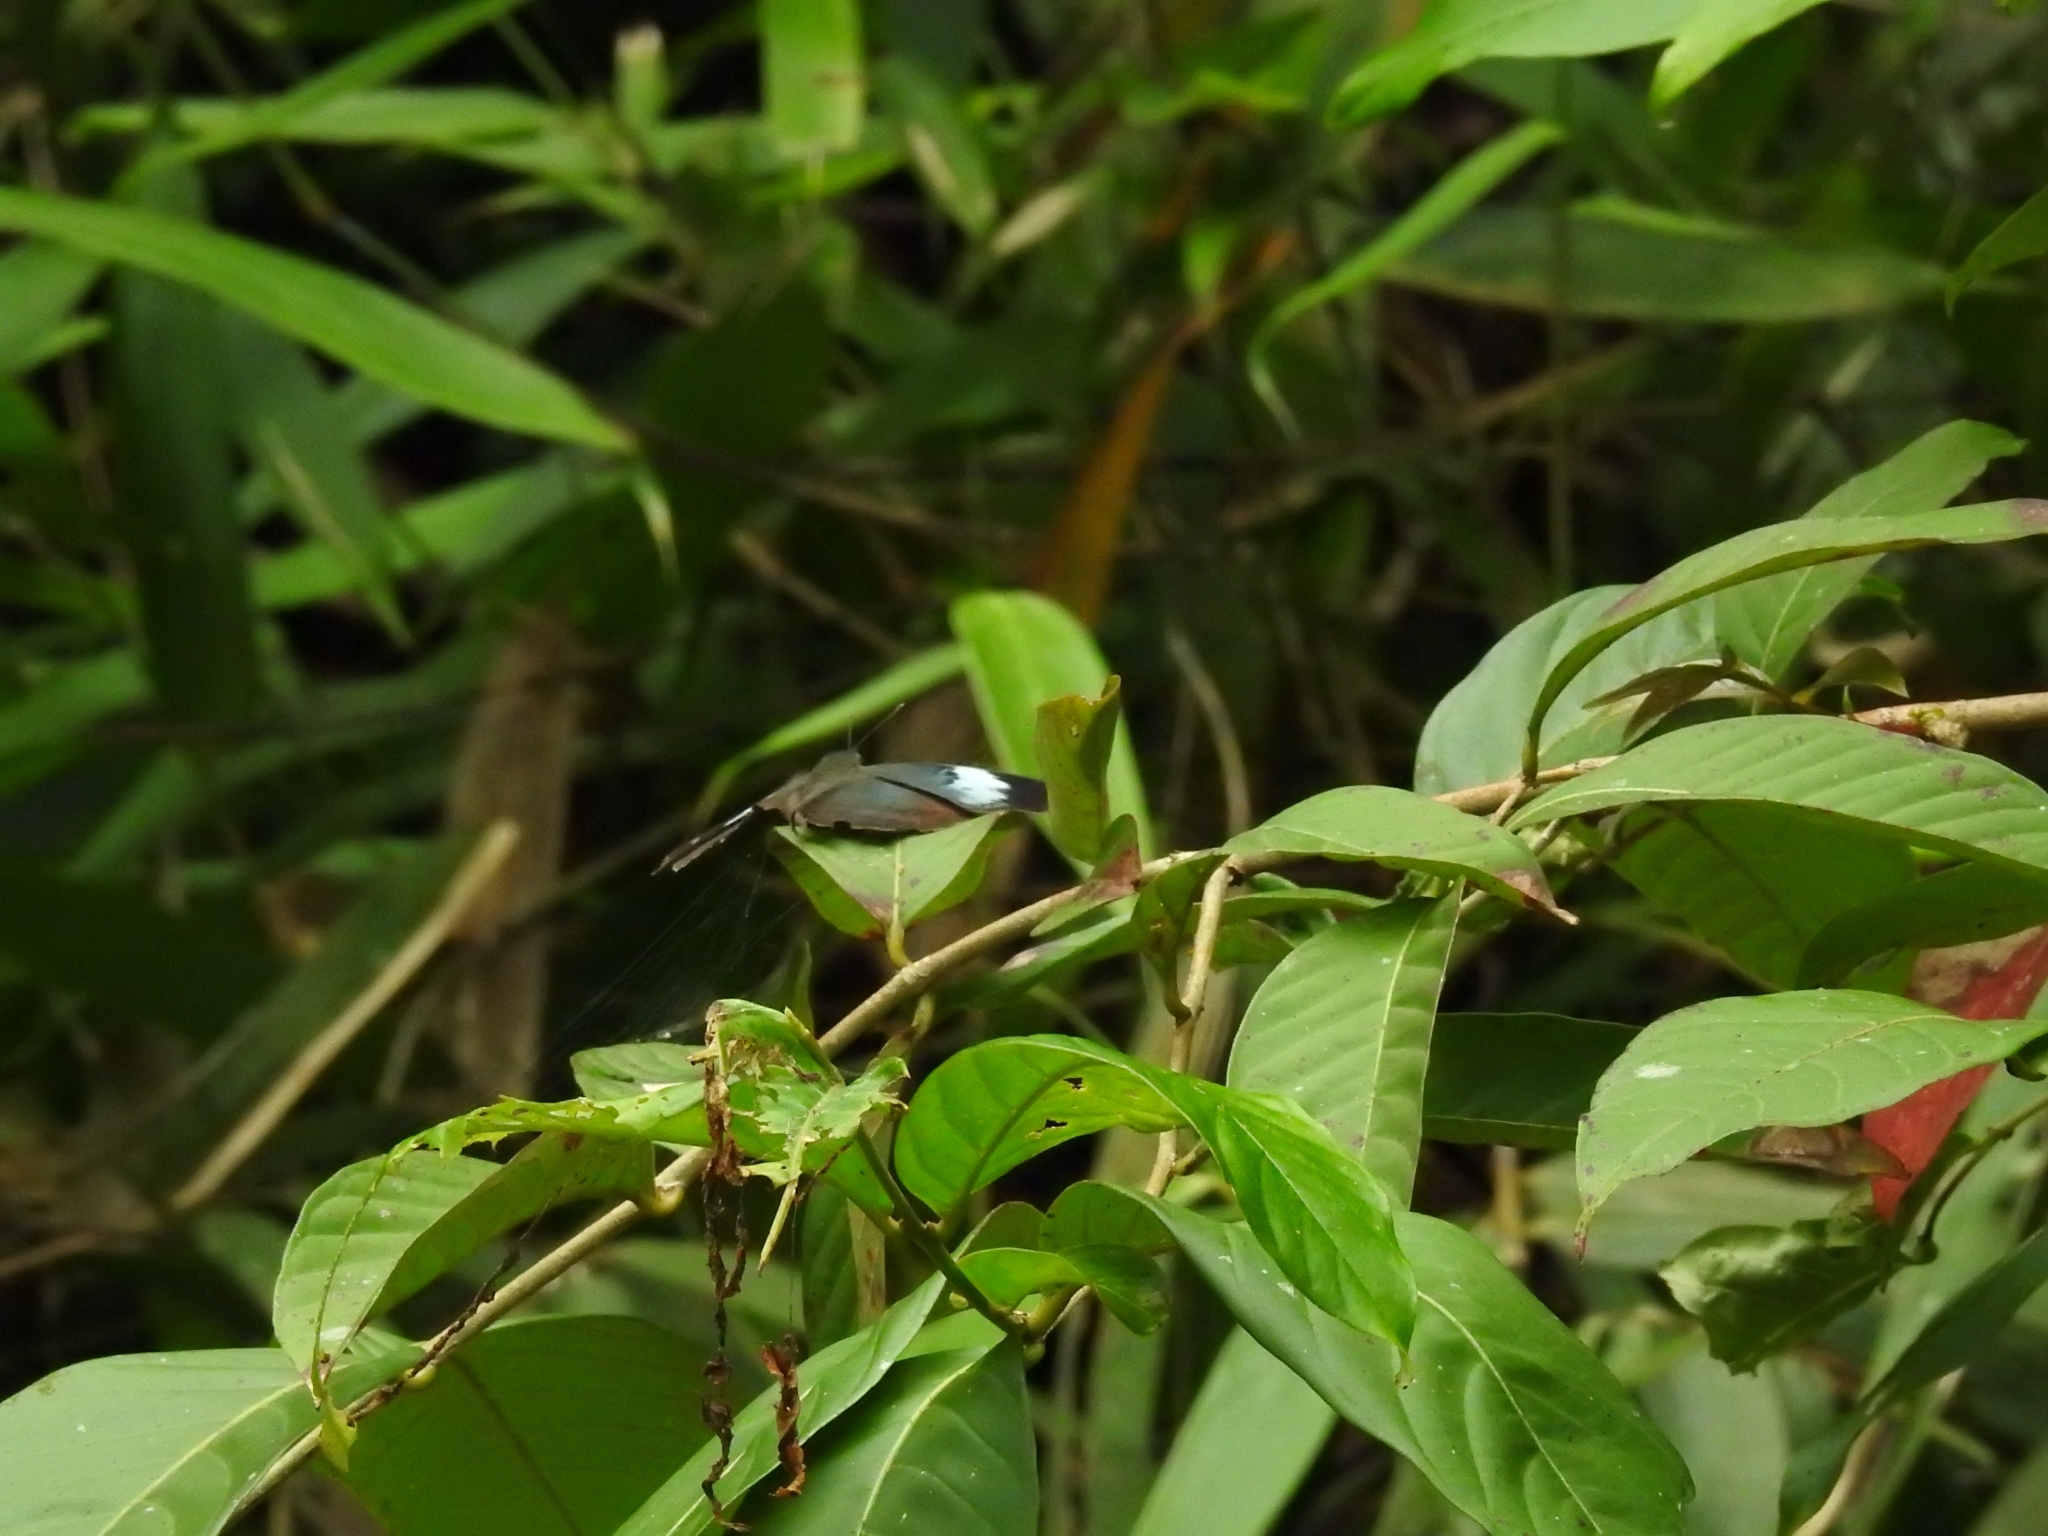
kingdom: Animalia
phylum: Arthropoda
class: Insecta
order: Lepidoptera
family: Nymphalidae
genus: Kallima
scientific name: Kallima horsfieldii
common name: Sahyadri blue oakleaf
